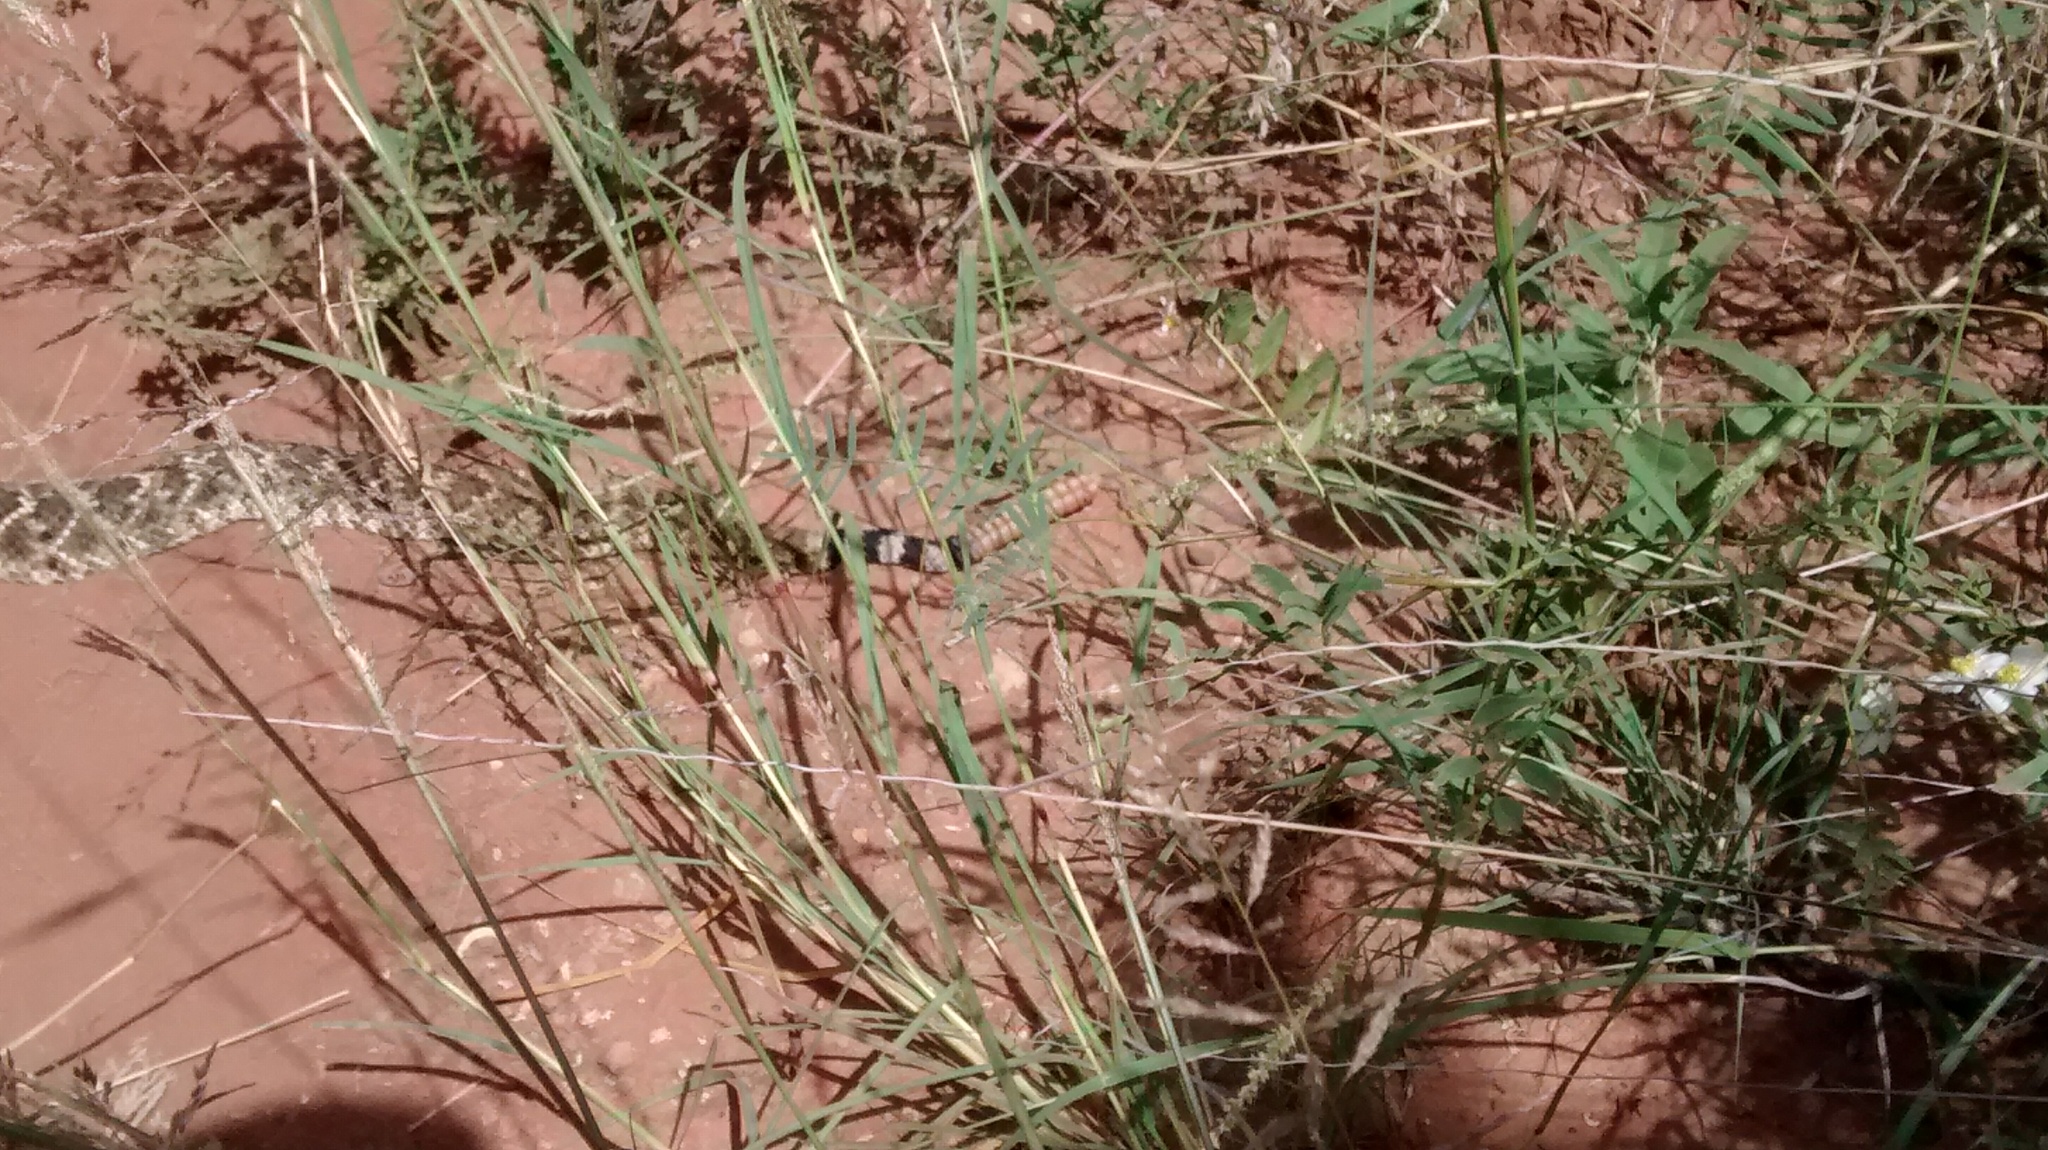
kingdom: Animalia
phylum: Chordata
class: Squamata
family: Viperidae
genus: Crotalus
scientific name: Crotalus atrox
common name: Western diamond-backed rattlesnake
